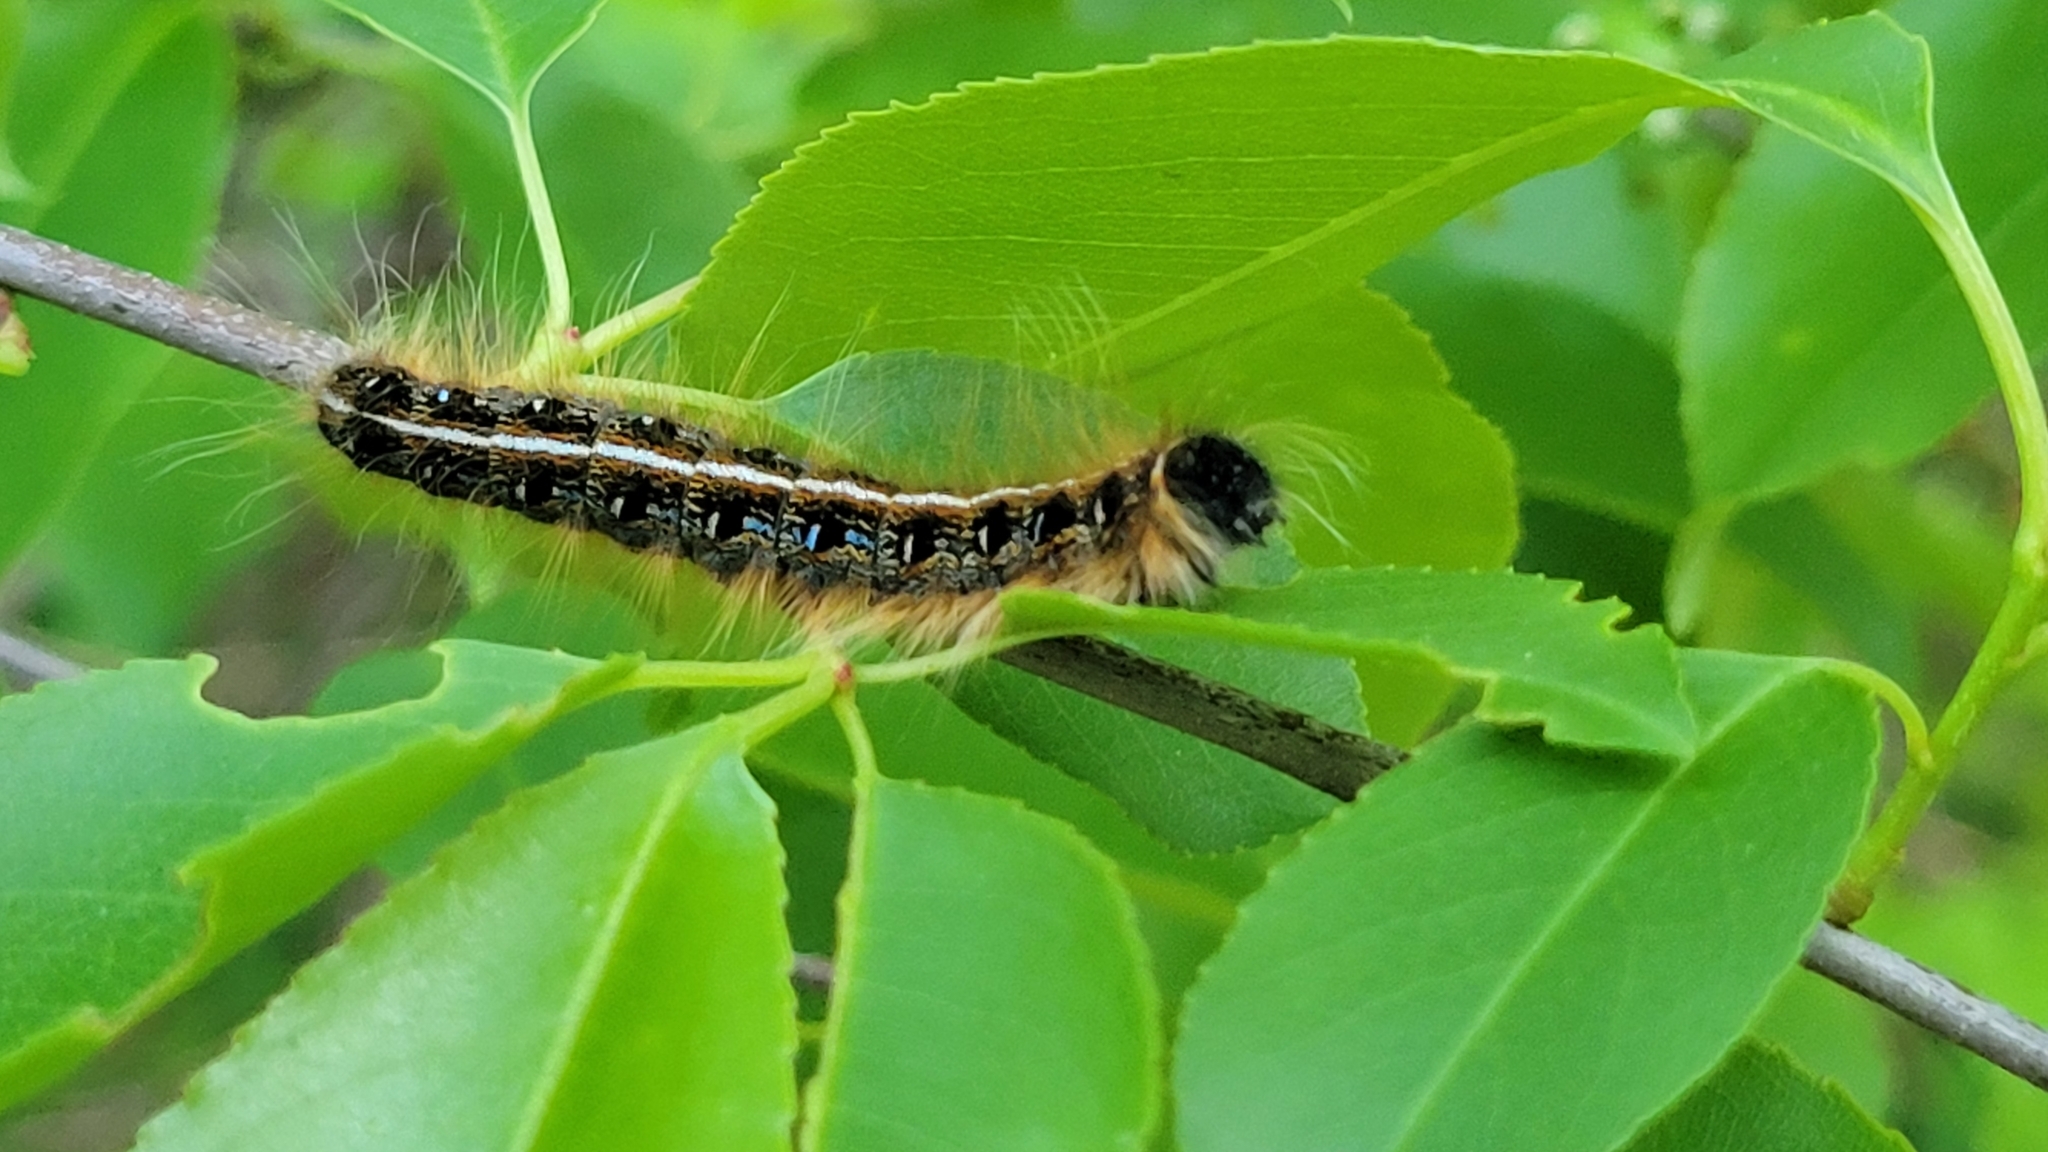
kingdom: Animalia
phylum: Arthropoda
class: Insecta
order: Lepidoptera
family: Lasiocampidae
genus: Malacosoma
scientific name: Malacosoma americana
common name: Eastern tent caterpillar moth
